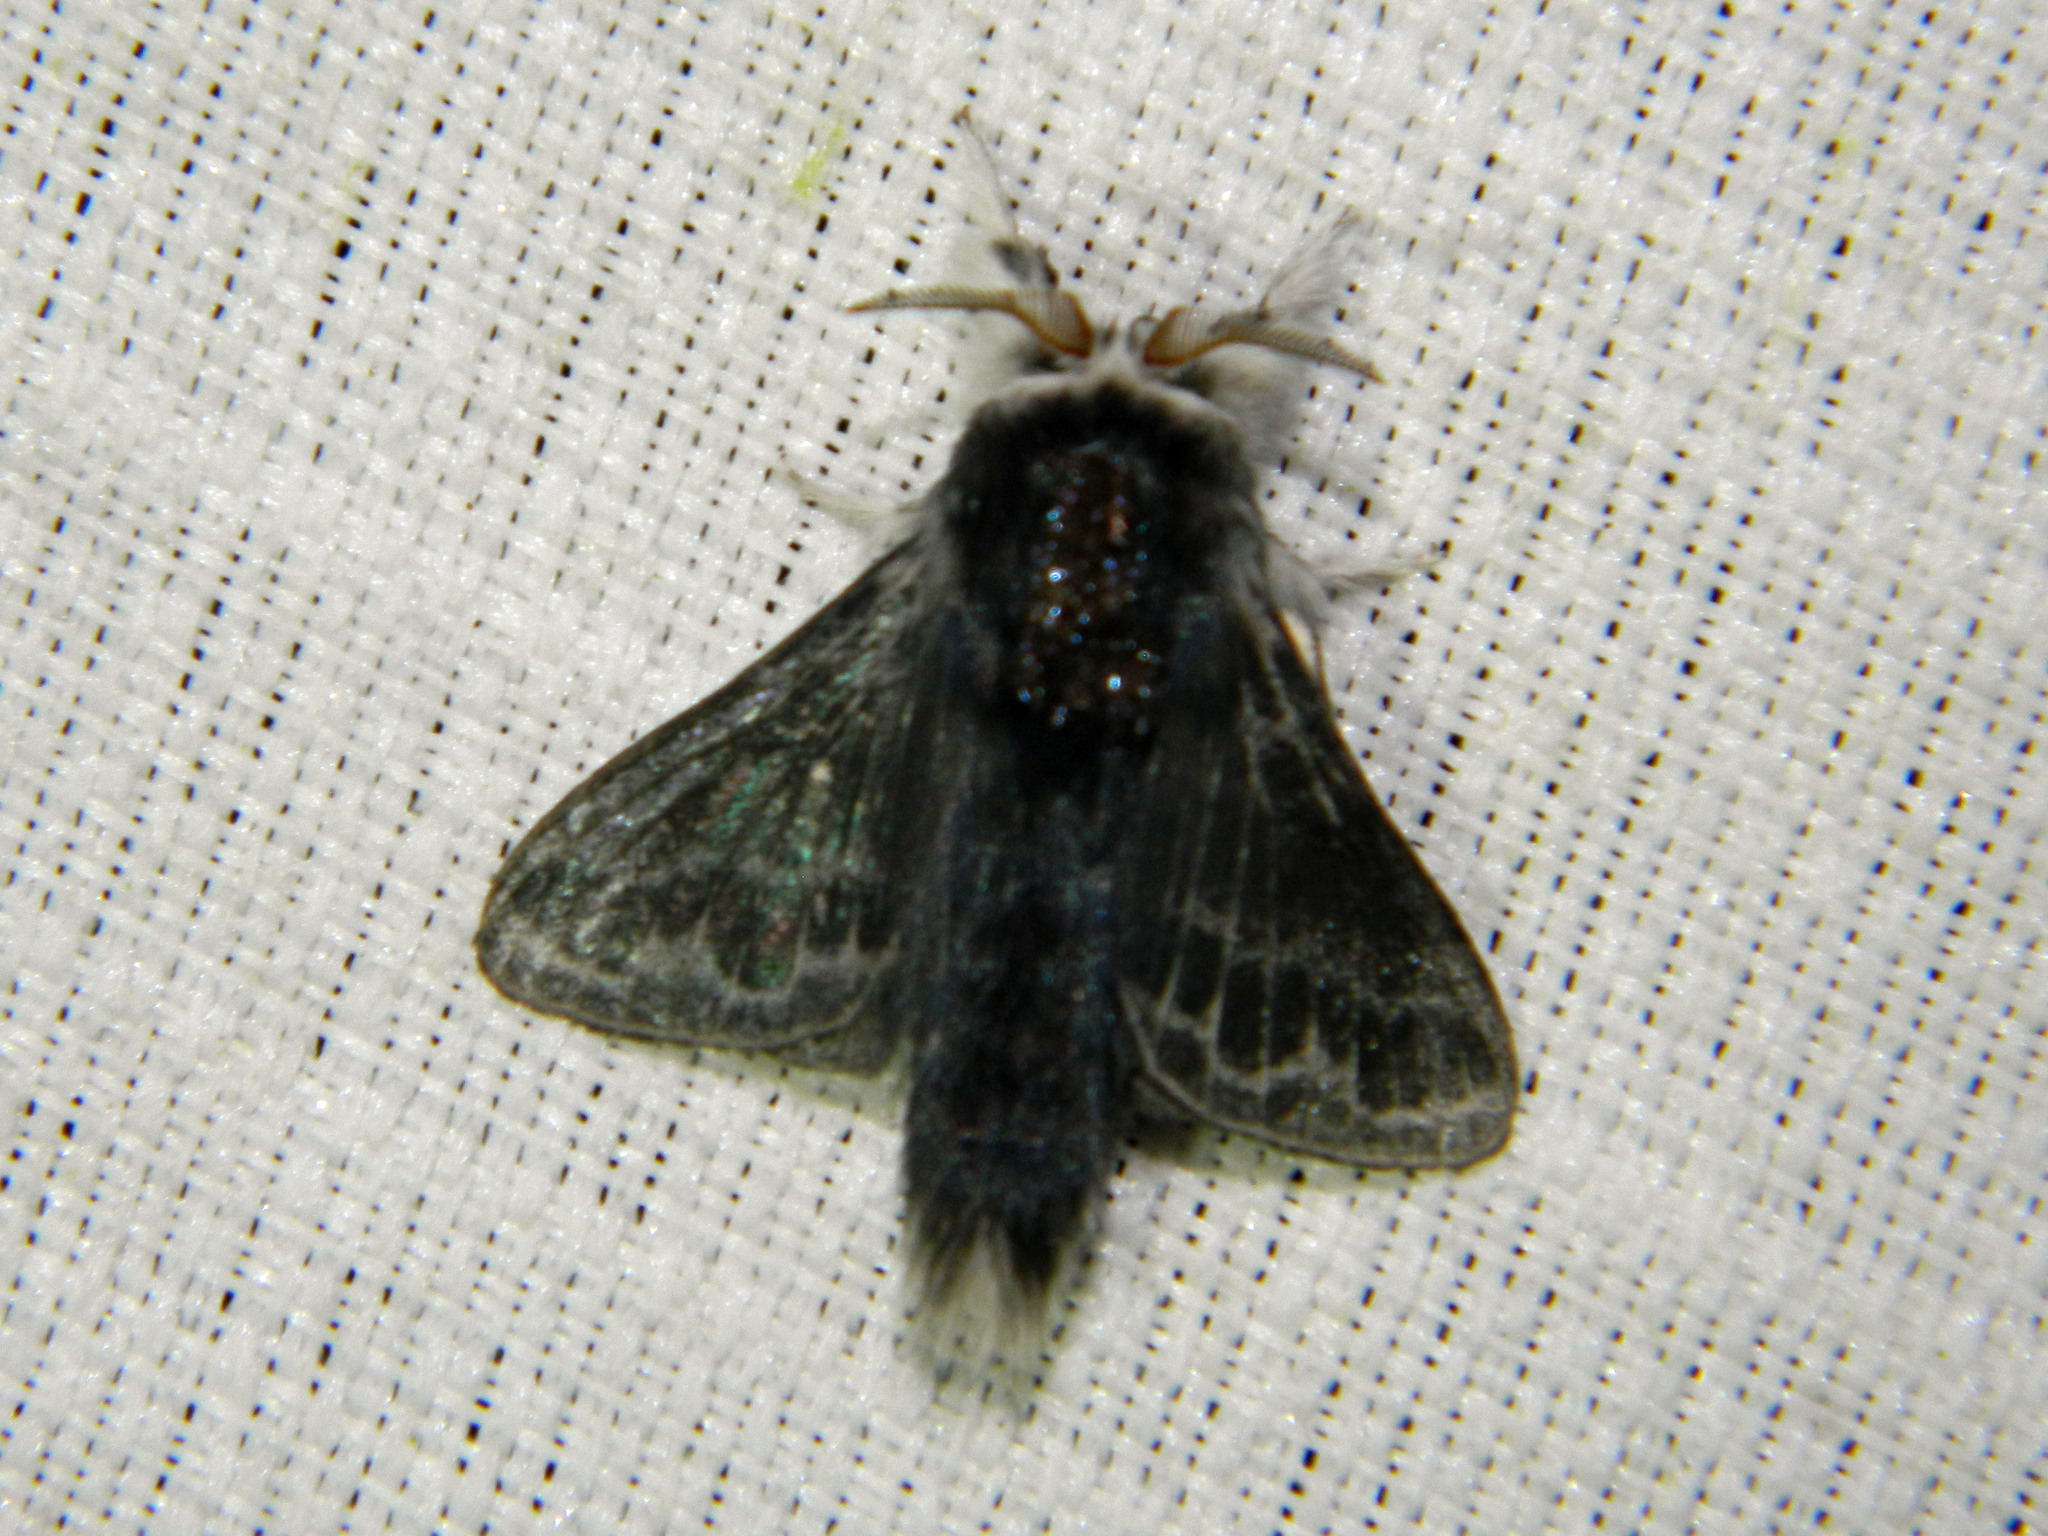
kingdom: Animalia
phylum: Arthropoda
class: Insecta
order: Lepidoptera
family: Lasiocampidae
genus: Tolype
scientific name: Tolype laricis
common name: Larch tolype moth
